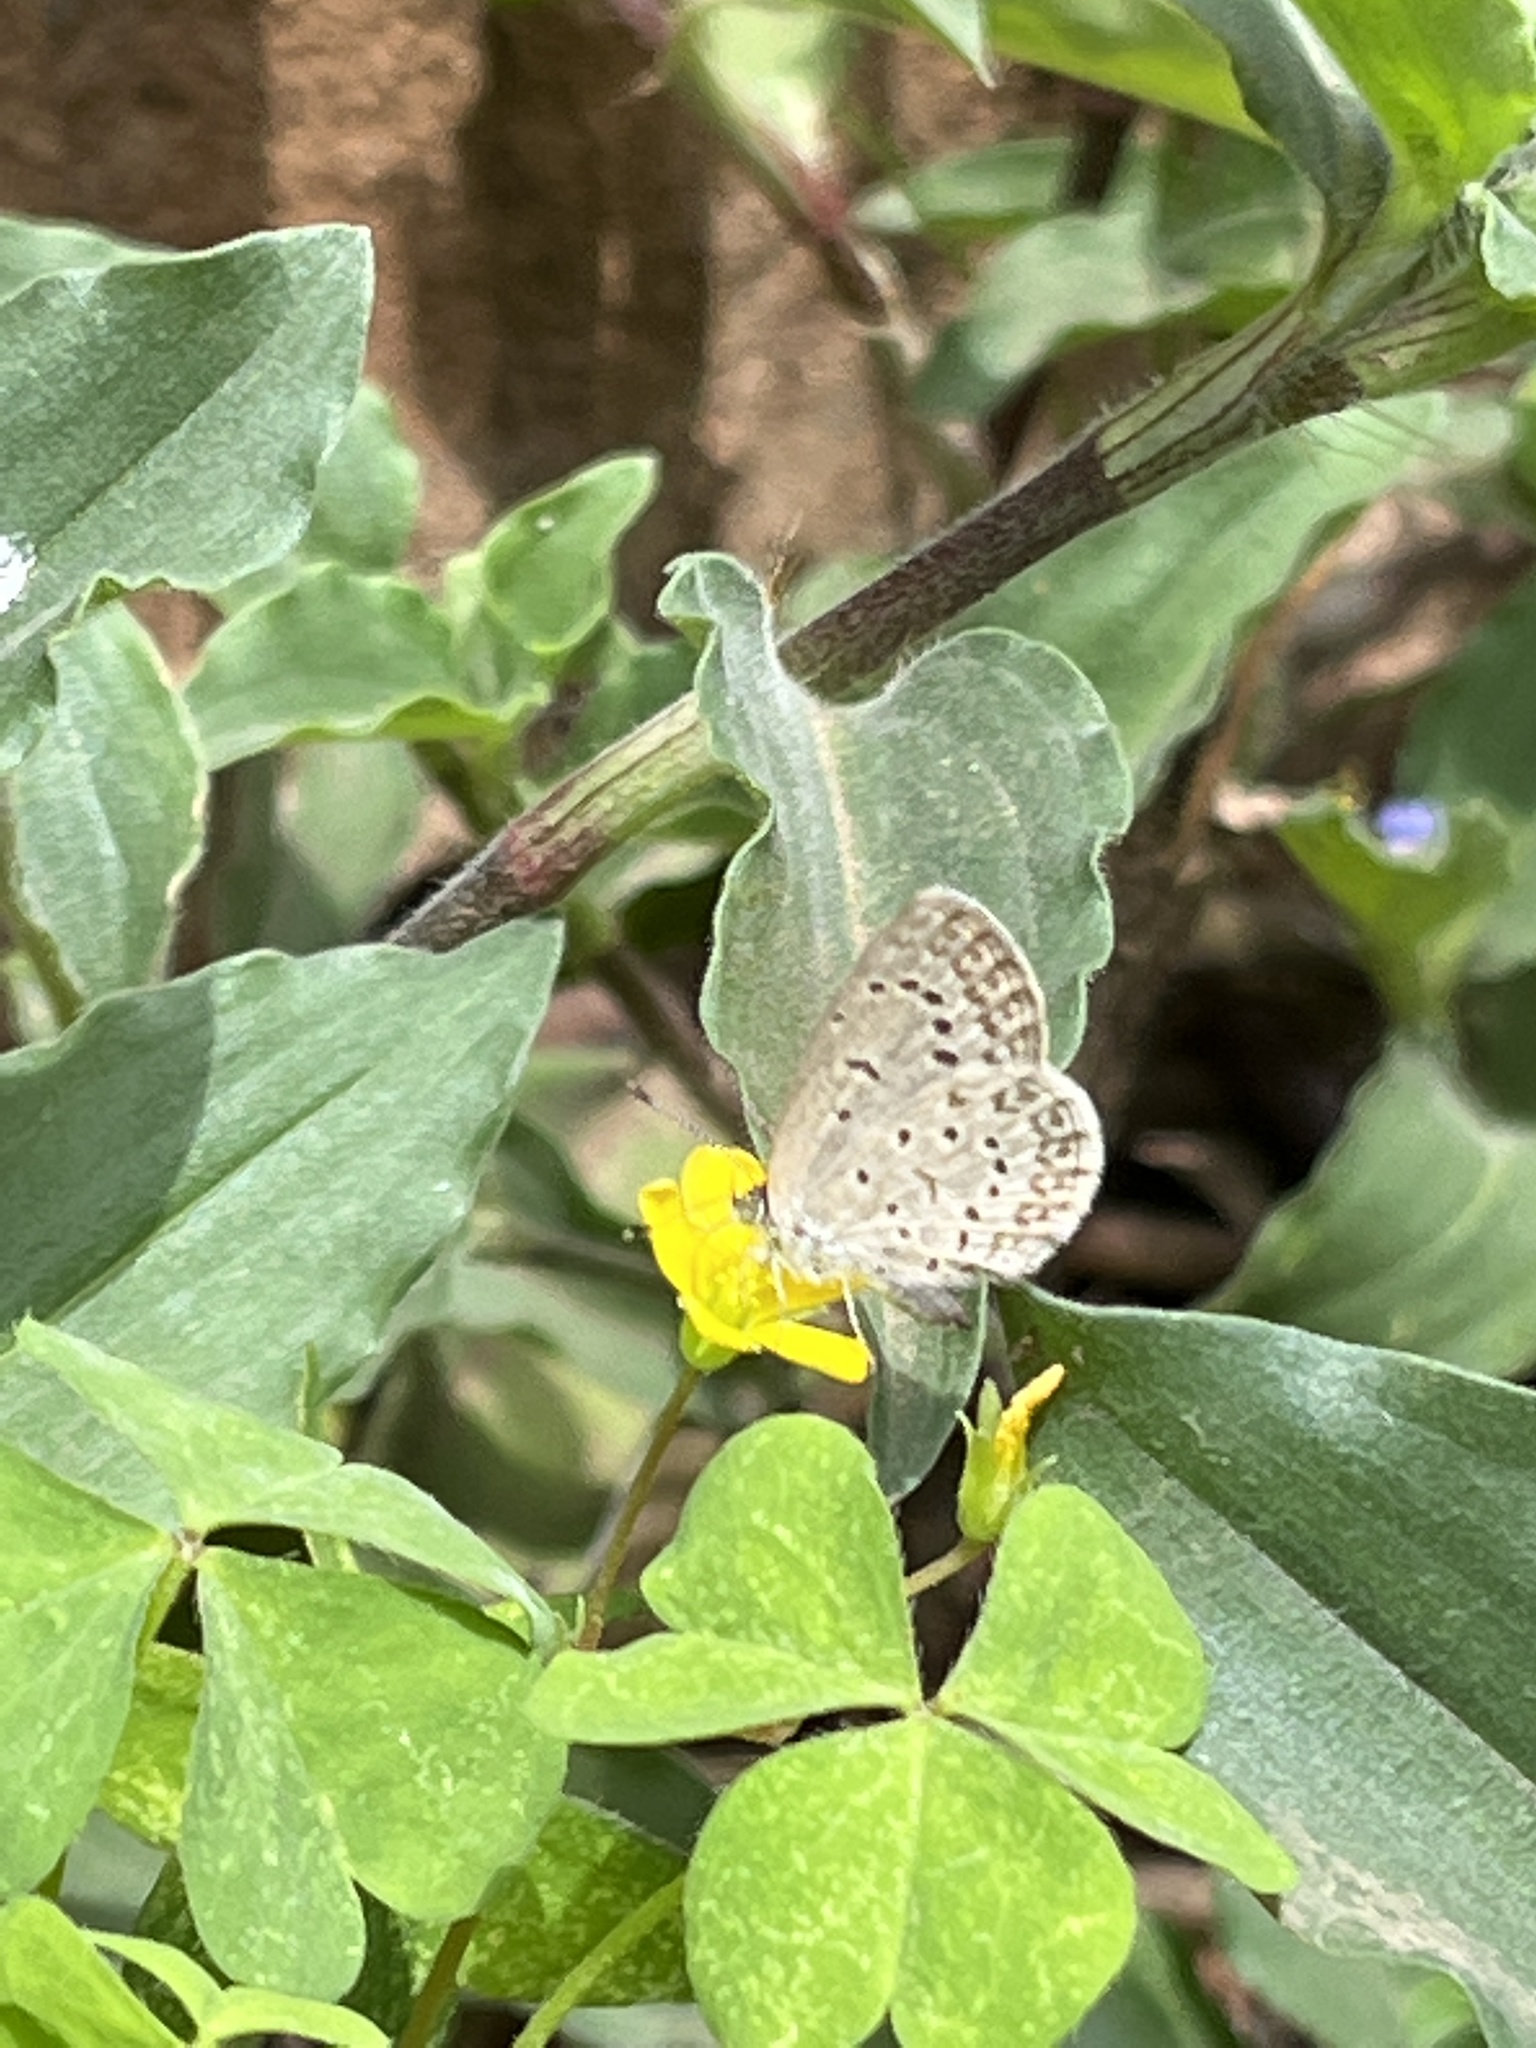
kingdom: Animalia
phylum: Arthropoda
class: Insecta
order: Lepidoptera
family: Lycaenidae
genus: Zizeeria
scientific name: Zizeeria knysna
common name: African grass blue
